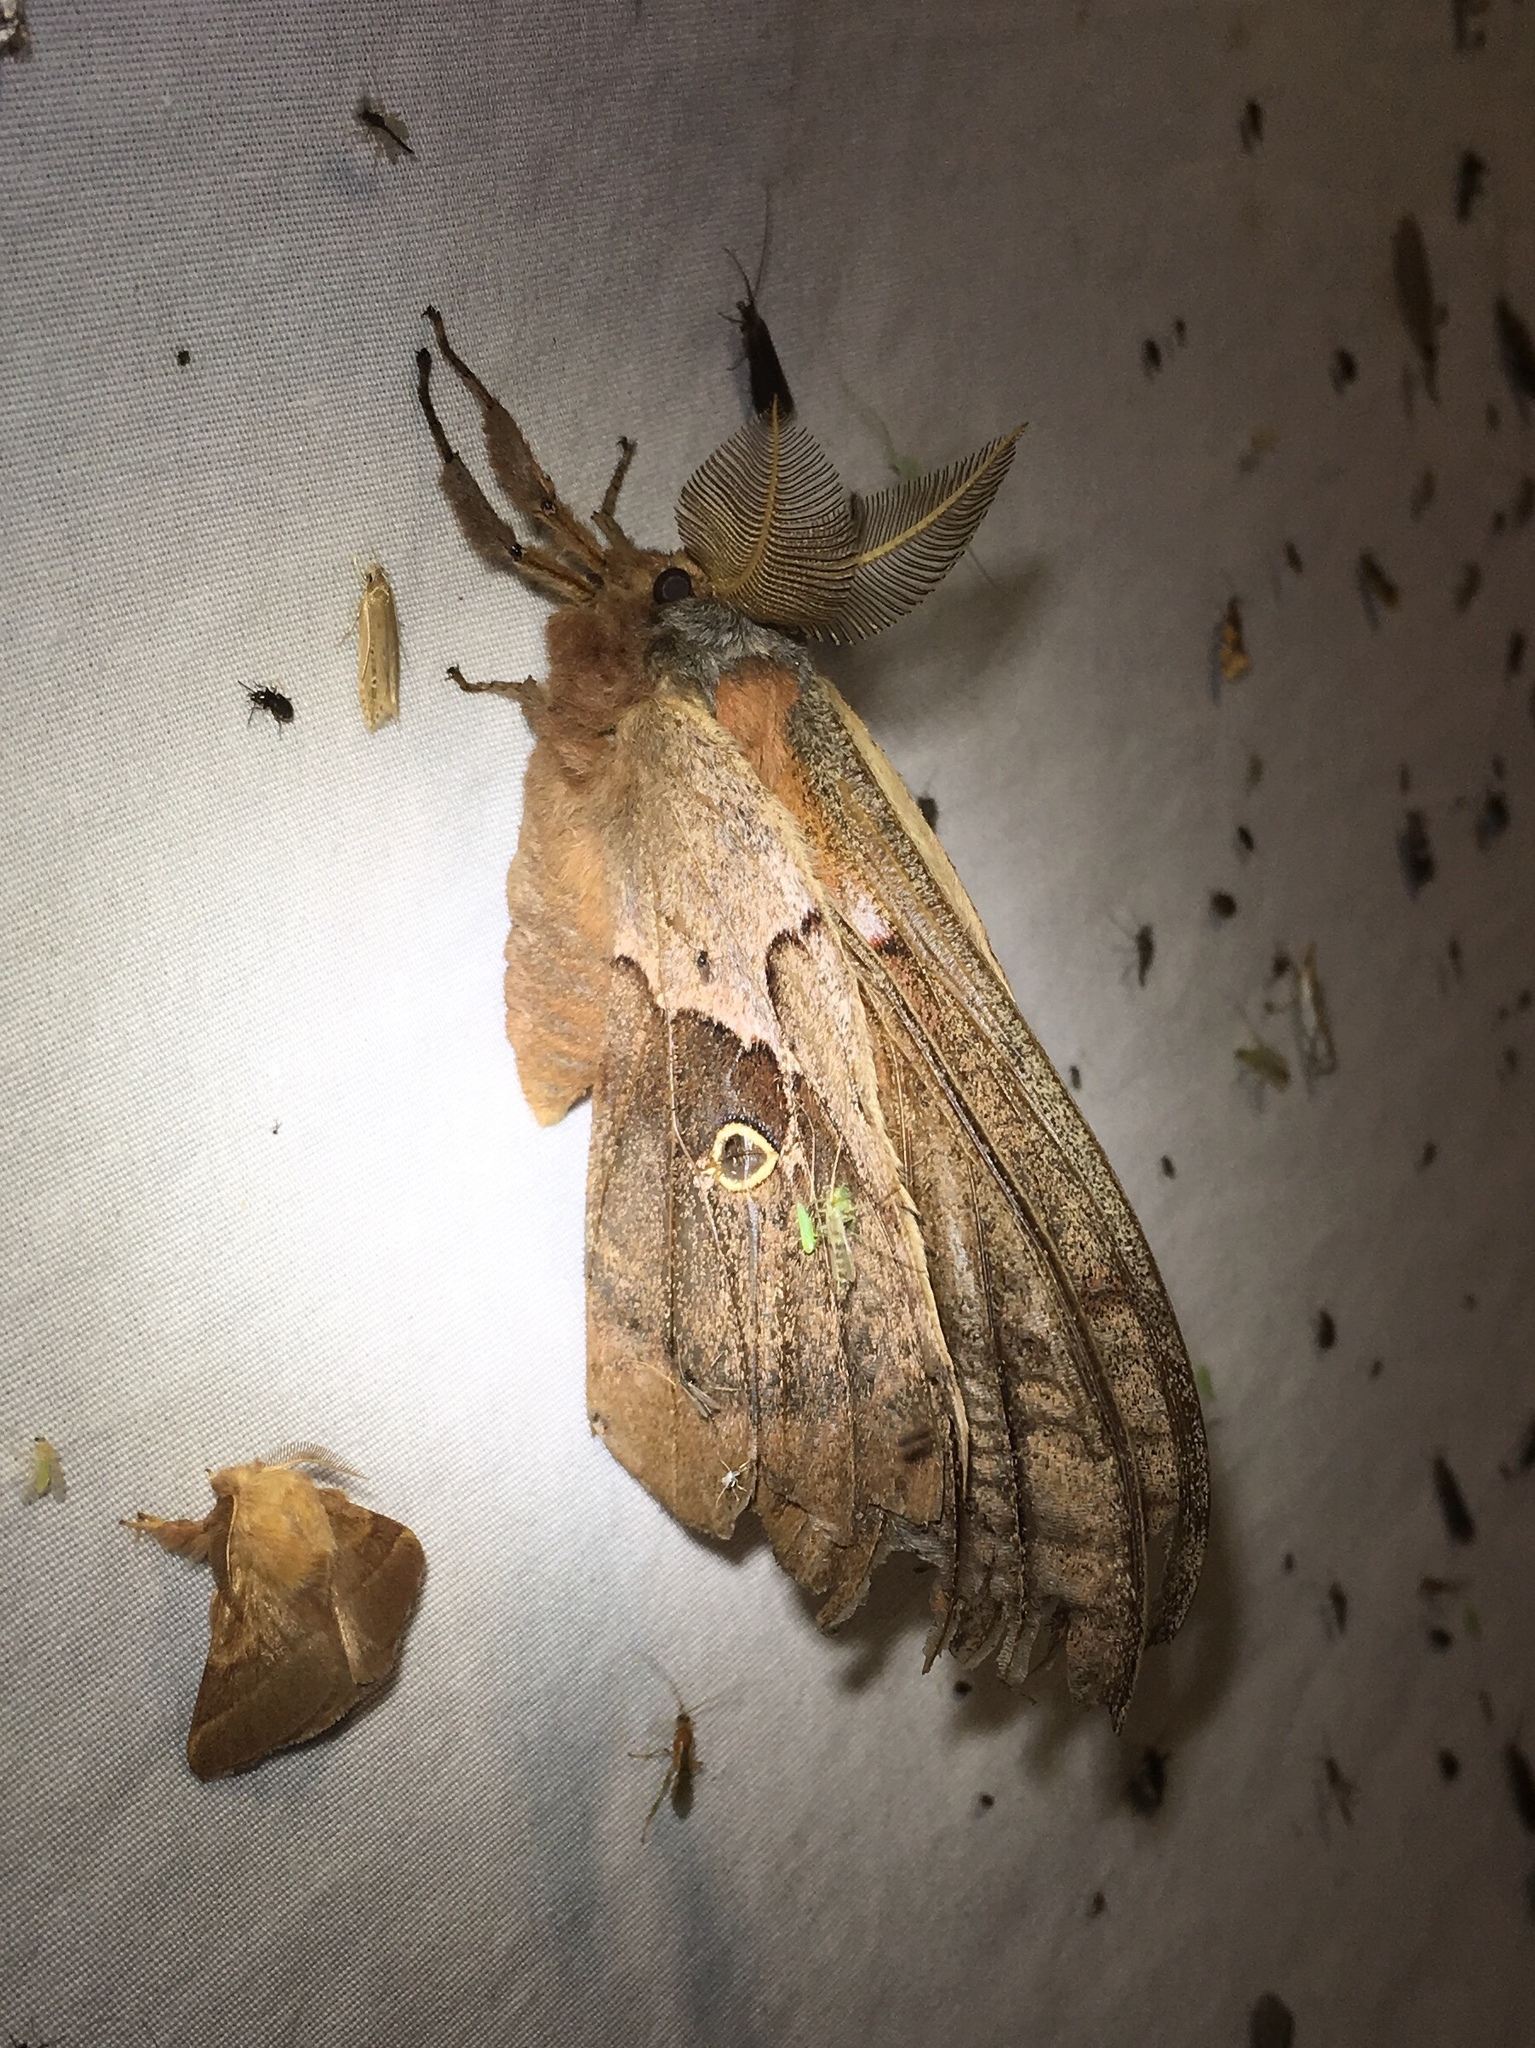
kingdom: Animalia
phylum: Arthropoda
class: Insecta
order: Lepidoptera
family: Saturniidae
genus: Antheraea
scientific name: Antheraea polyphemus
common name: Polyphemus moth
